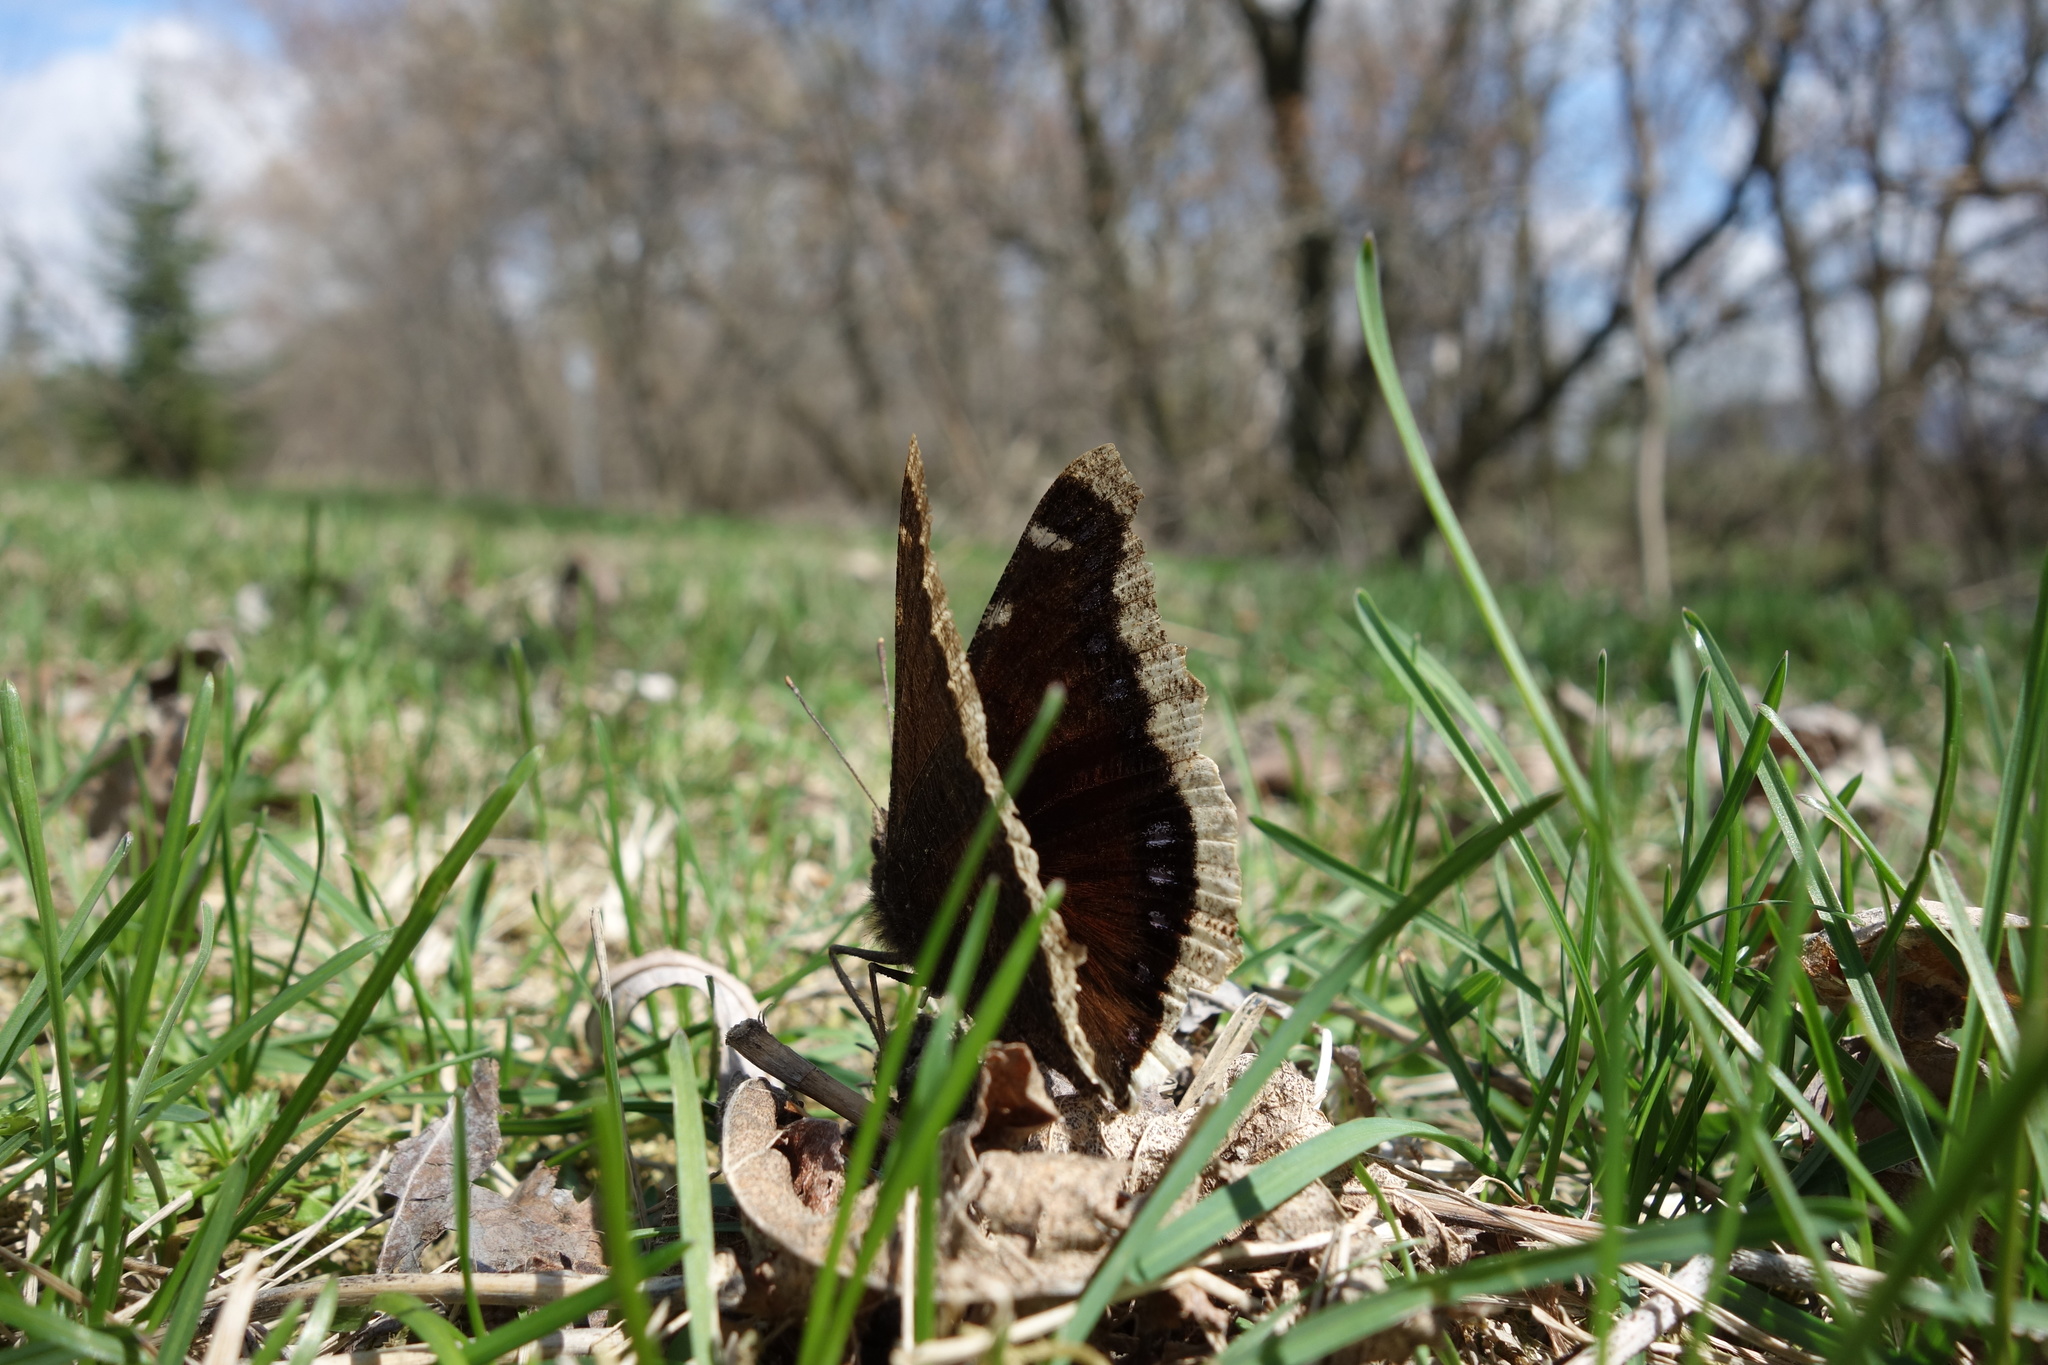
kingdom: Animalia
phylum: Arthropoda
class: Insecta
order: Lepidoptera
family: Nymphalidae
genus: Nymphalis
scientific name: Nymphalis antiopa
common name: Camberwell beauty
